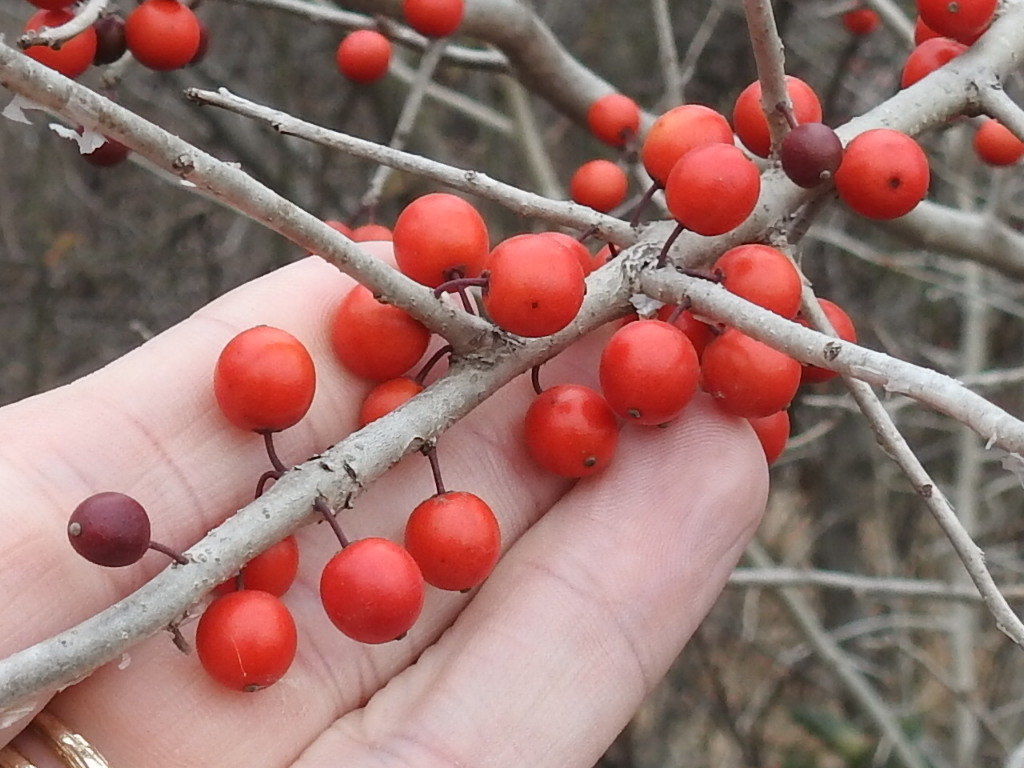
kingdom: Plantae
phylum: Tracheophyta
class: Magnoliopsida
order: Aquifoliales
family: Aquifoliaceae
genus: Ilex
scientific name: Ilex decidua
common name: Possum-haw
